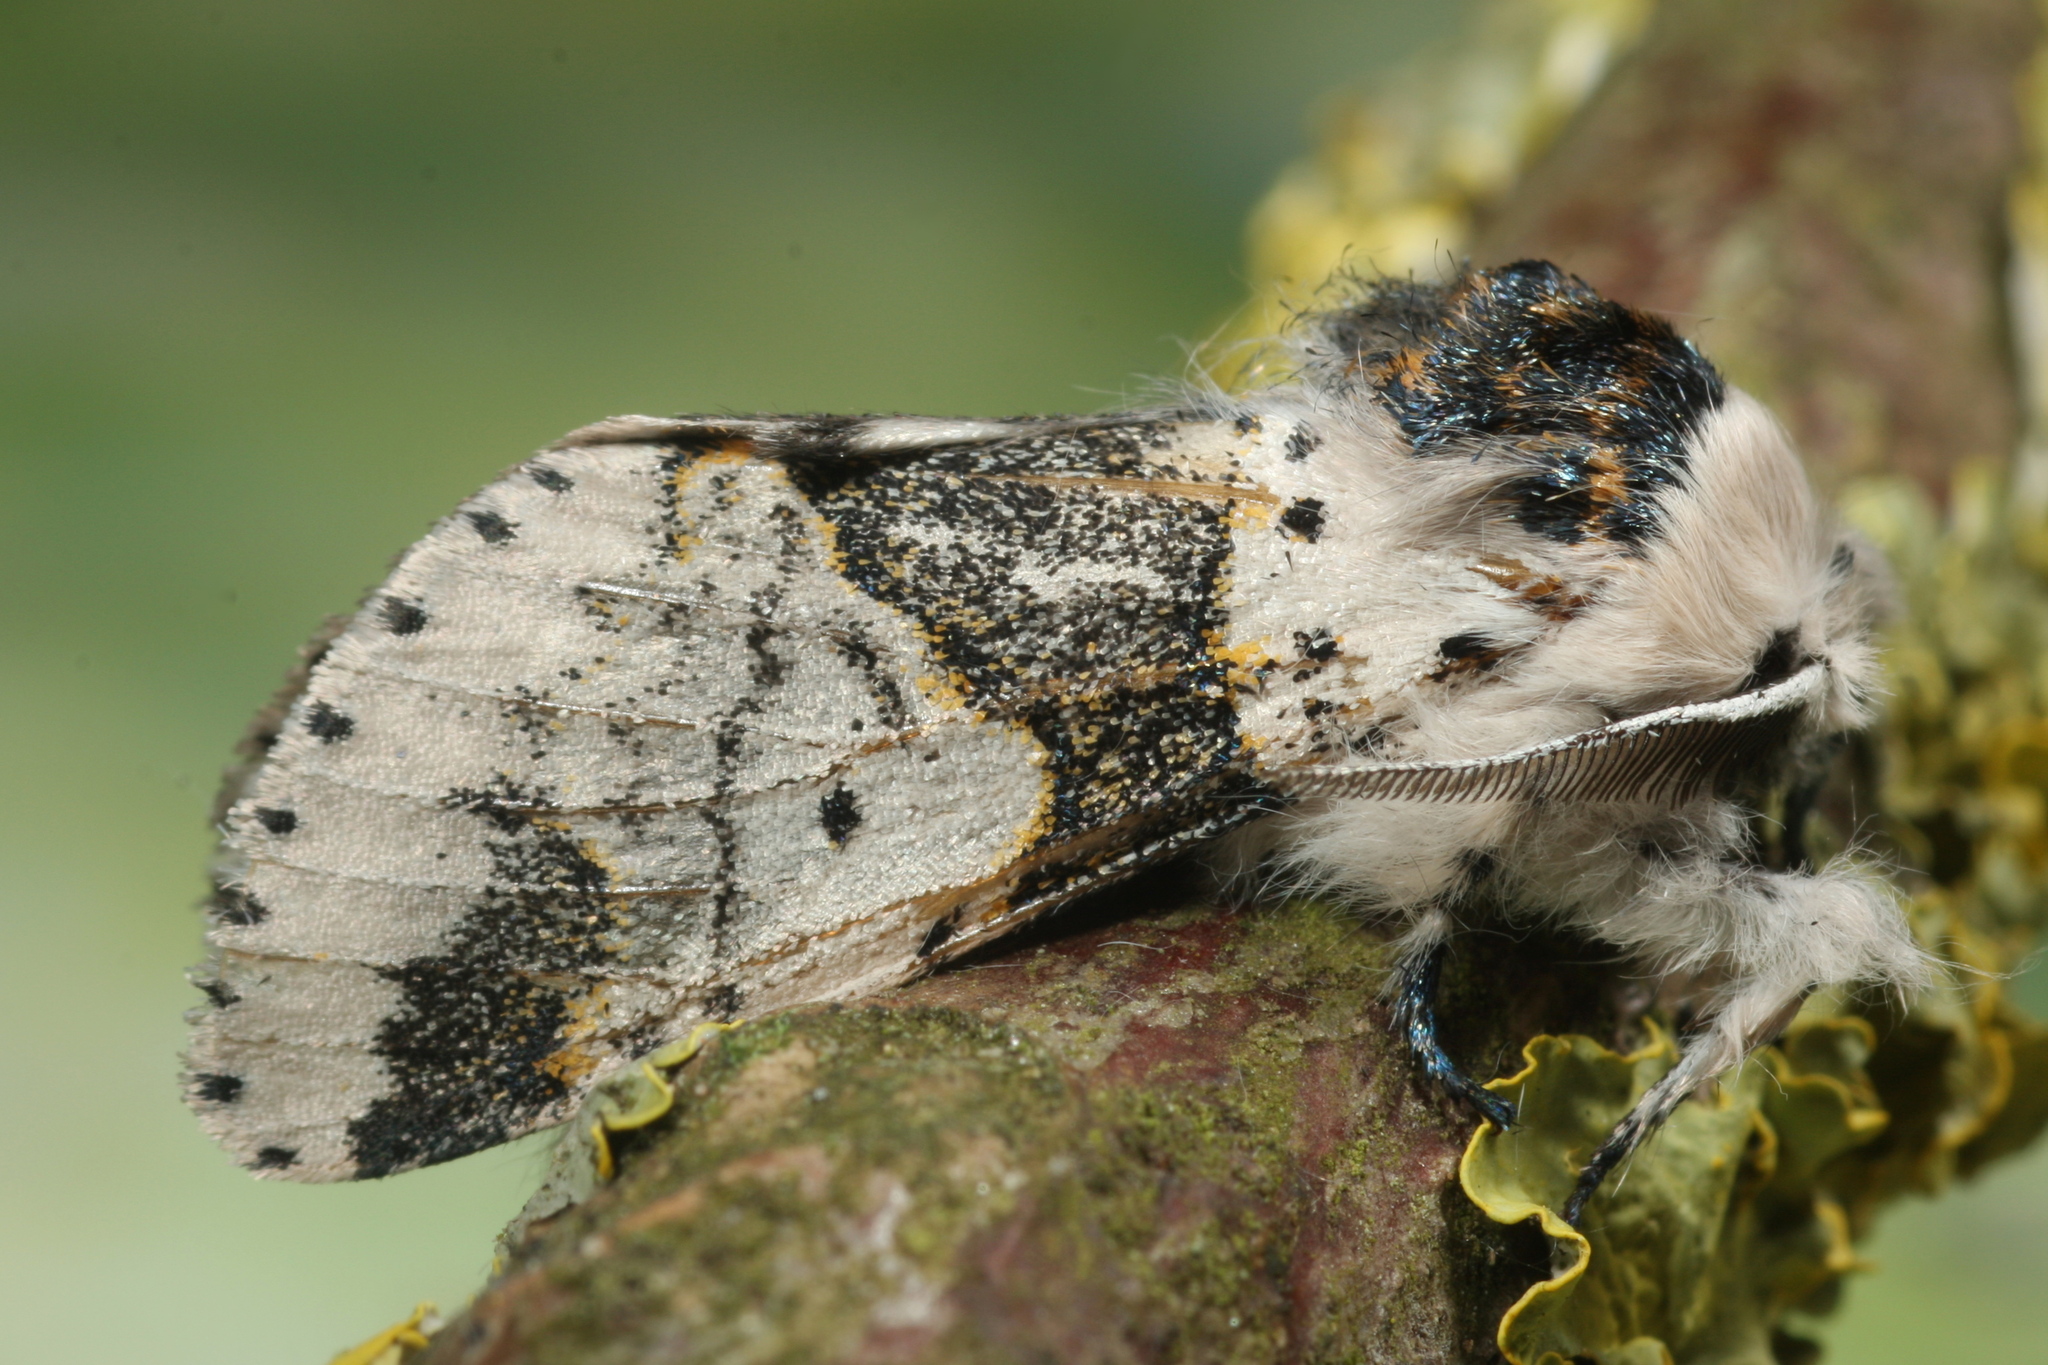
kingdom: Animalia
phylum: Arthropoda
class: Insecta
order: Lepidoptera
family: Notodontidae
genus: Furcula
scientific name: Furcula bicuspis
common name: Alder kitten
